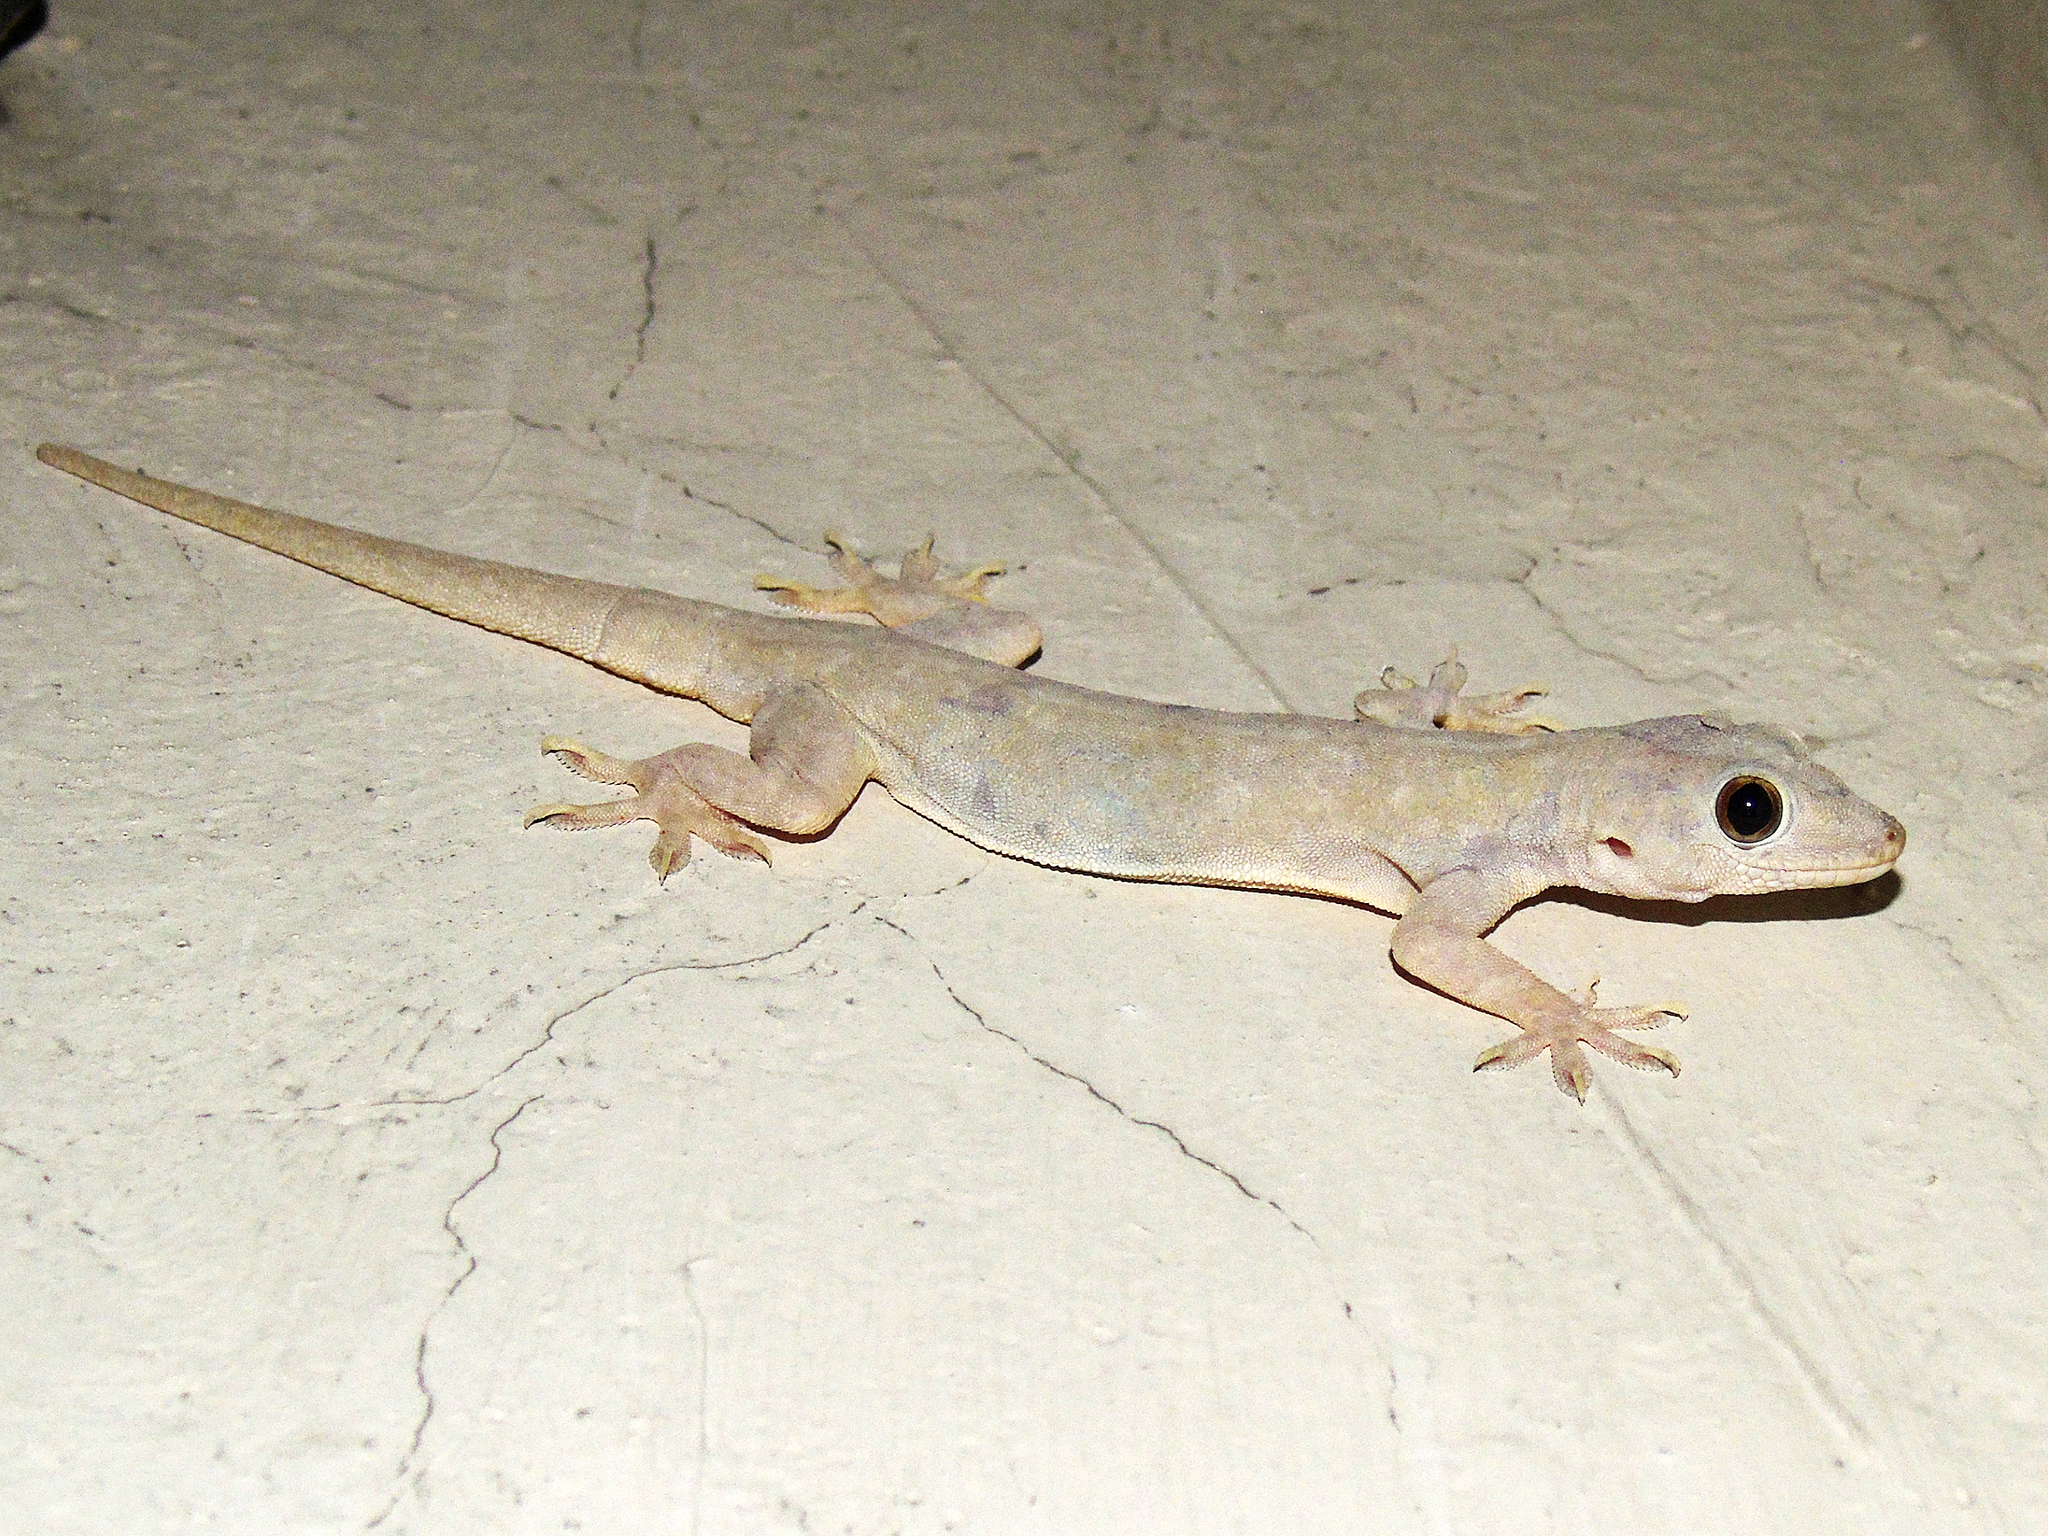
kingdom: Animalia
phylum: Chordata
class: Squamata
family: Gekkonidae
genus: Hemidactylus
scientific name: Hemidactylus flaviviridis
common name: Northern house gecko
